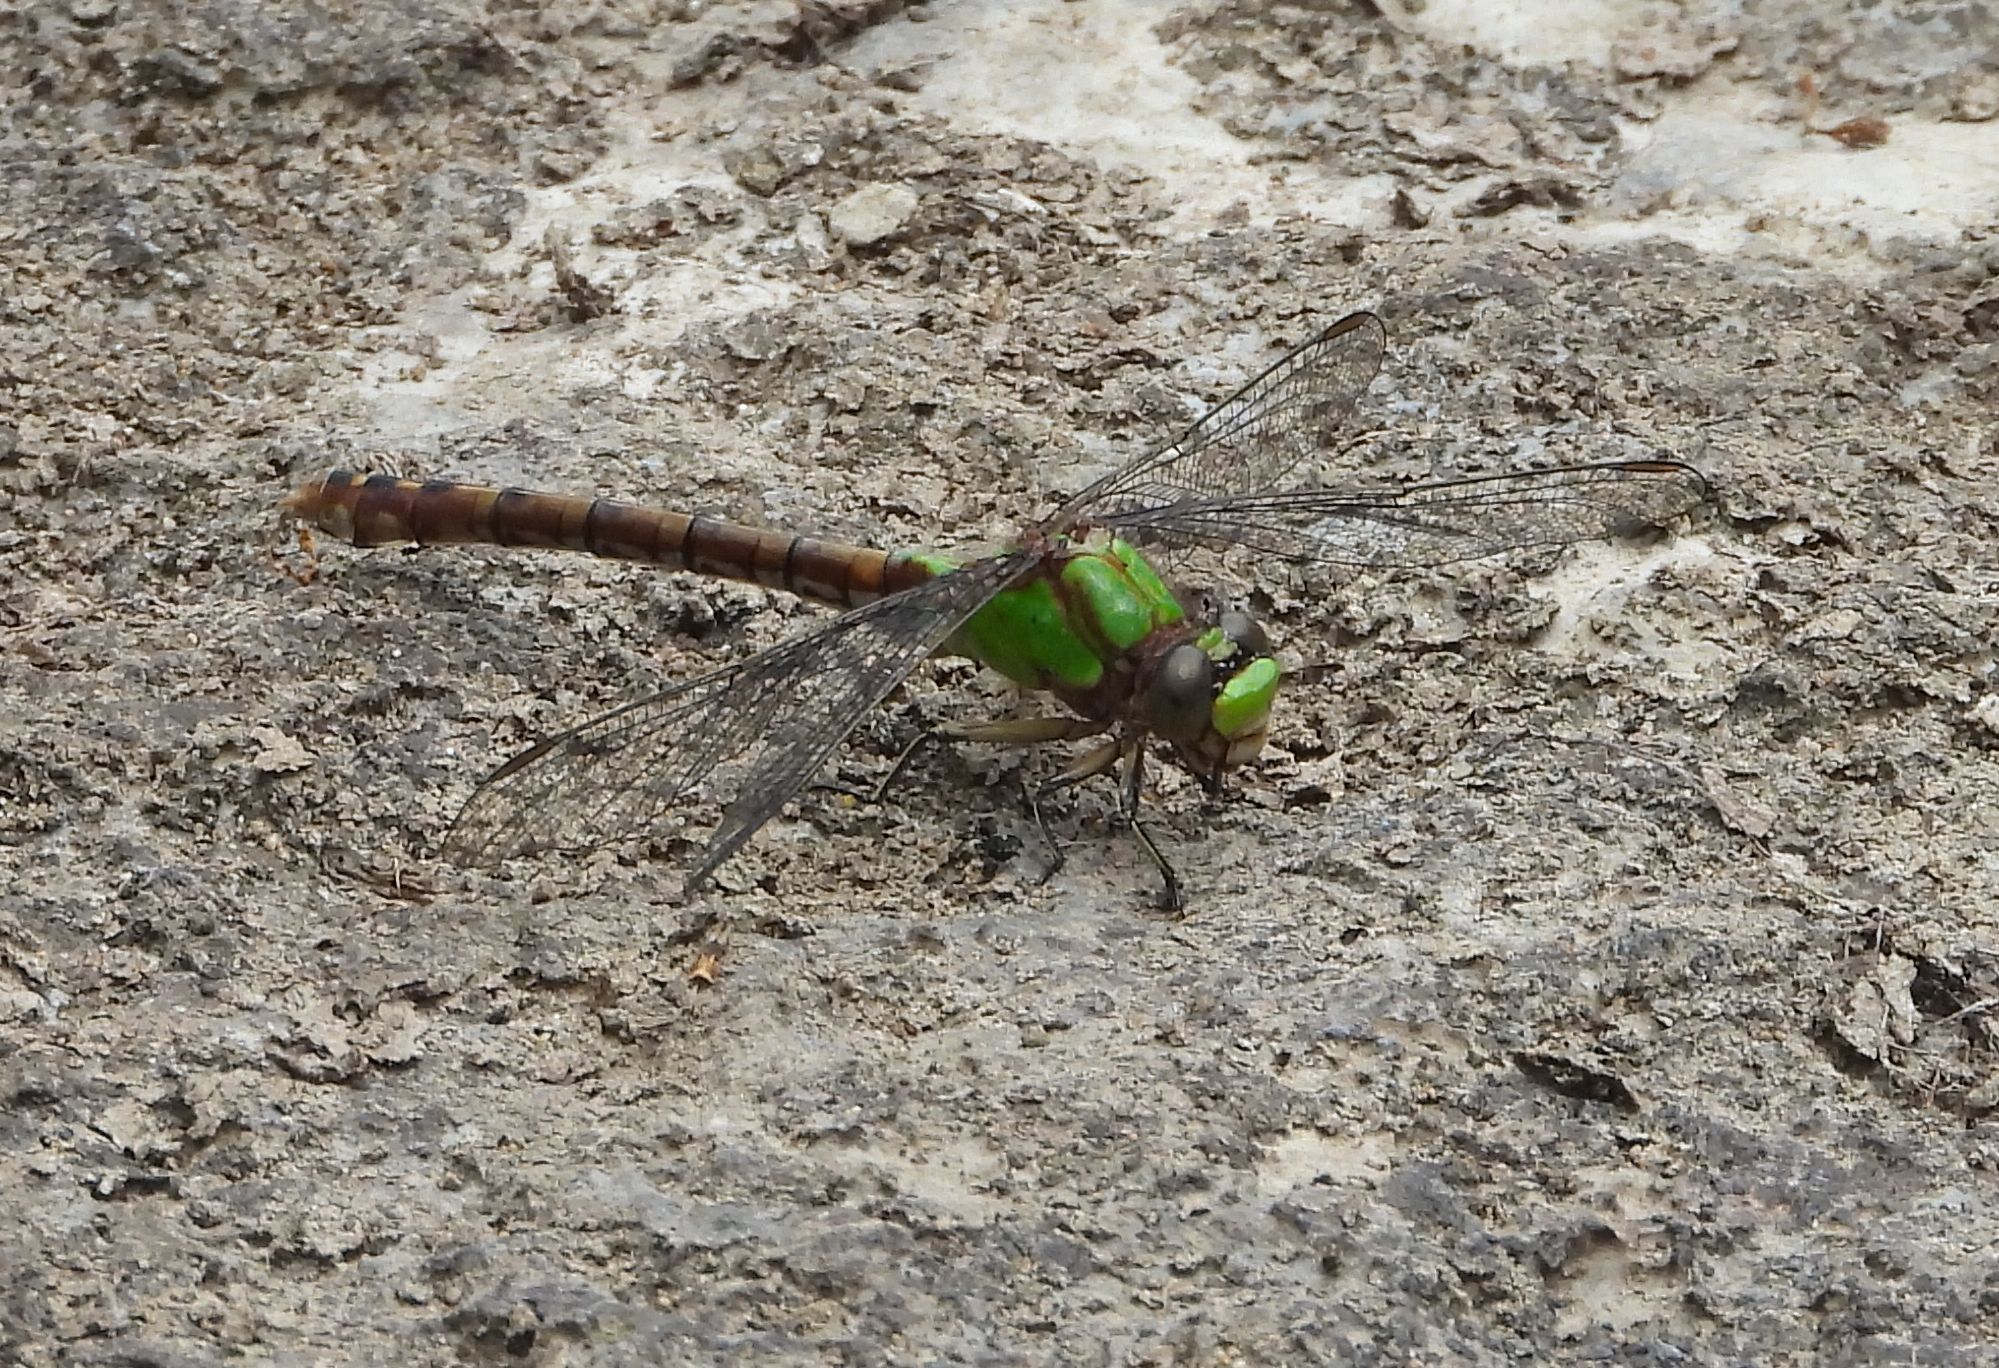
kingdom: Animalia
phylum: Arthropoda
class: Insecta
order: Odonata
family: Gomphidae
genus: Ophiogomphus
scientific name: Ophiogomphus rupinsulensis
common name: Rusty snaketail
